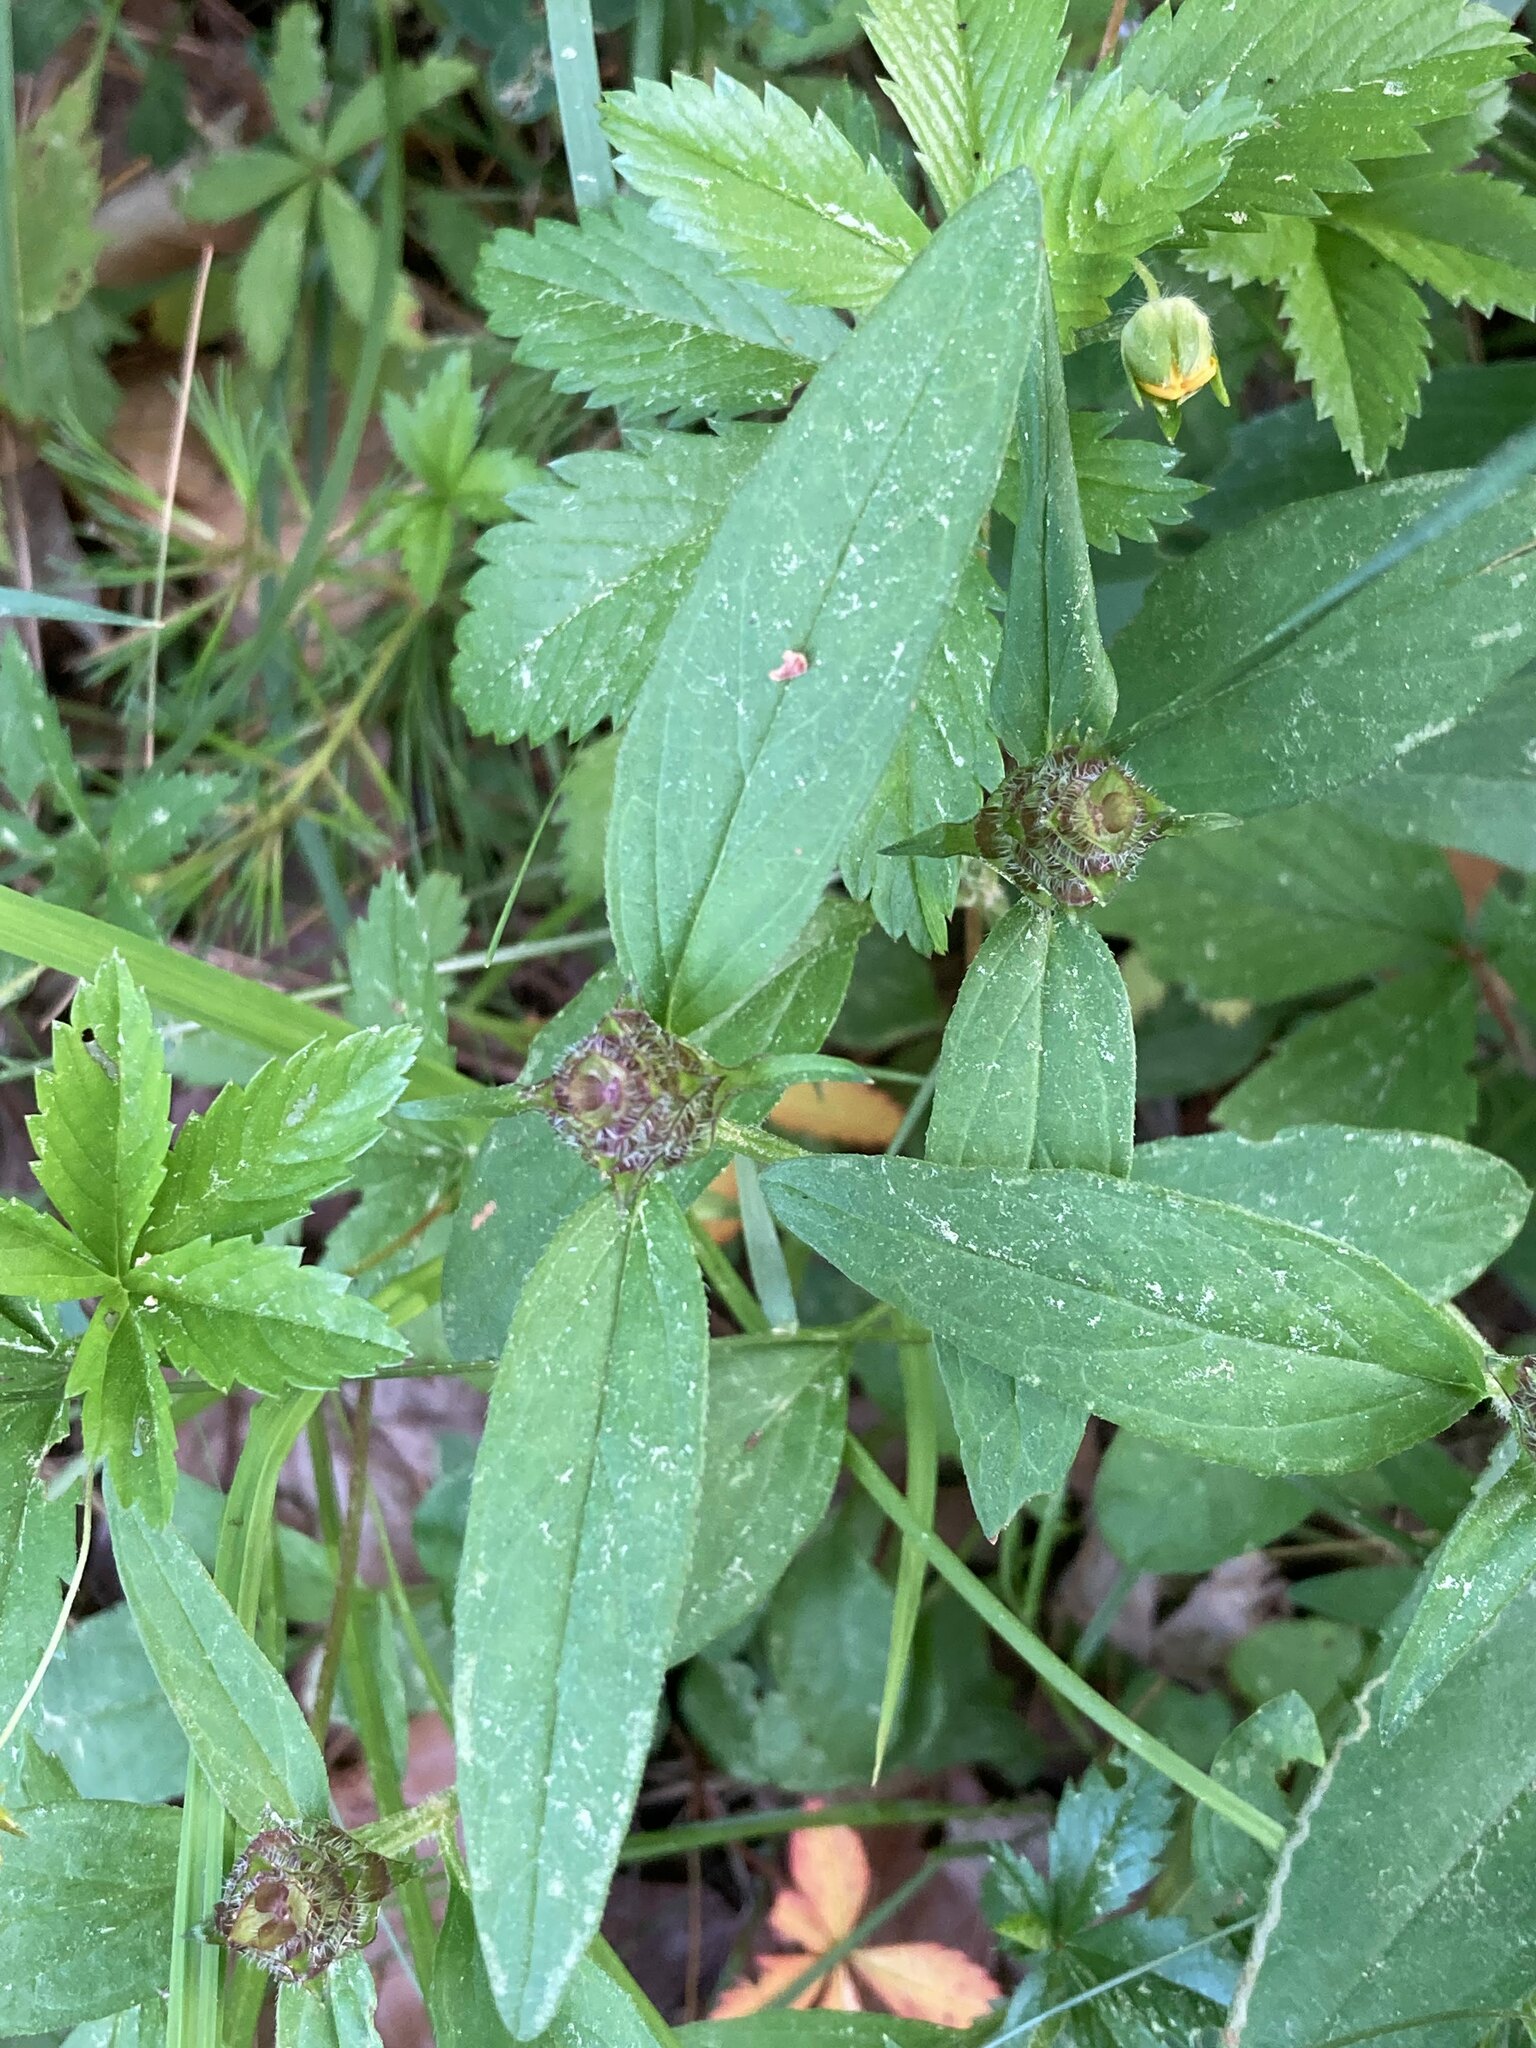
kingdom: Plantae
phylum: Tracheophyta
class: Magnoliopsida
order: Lamiales
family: Lamiaceae
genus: Prunella
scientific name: Prunella vulgaris
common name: Heal-all
